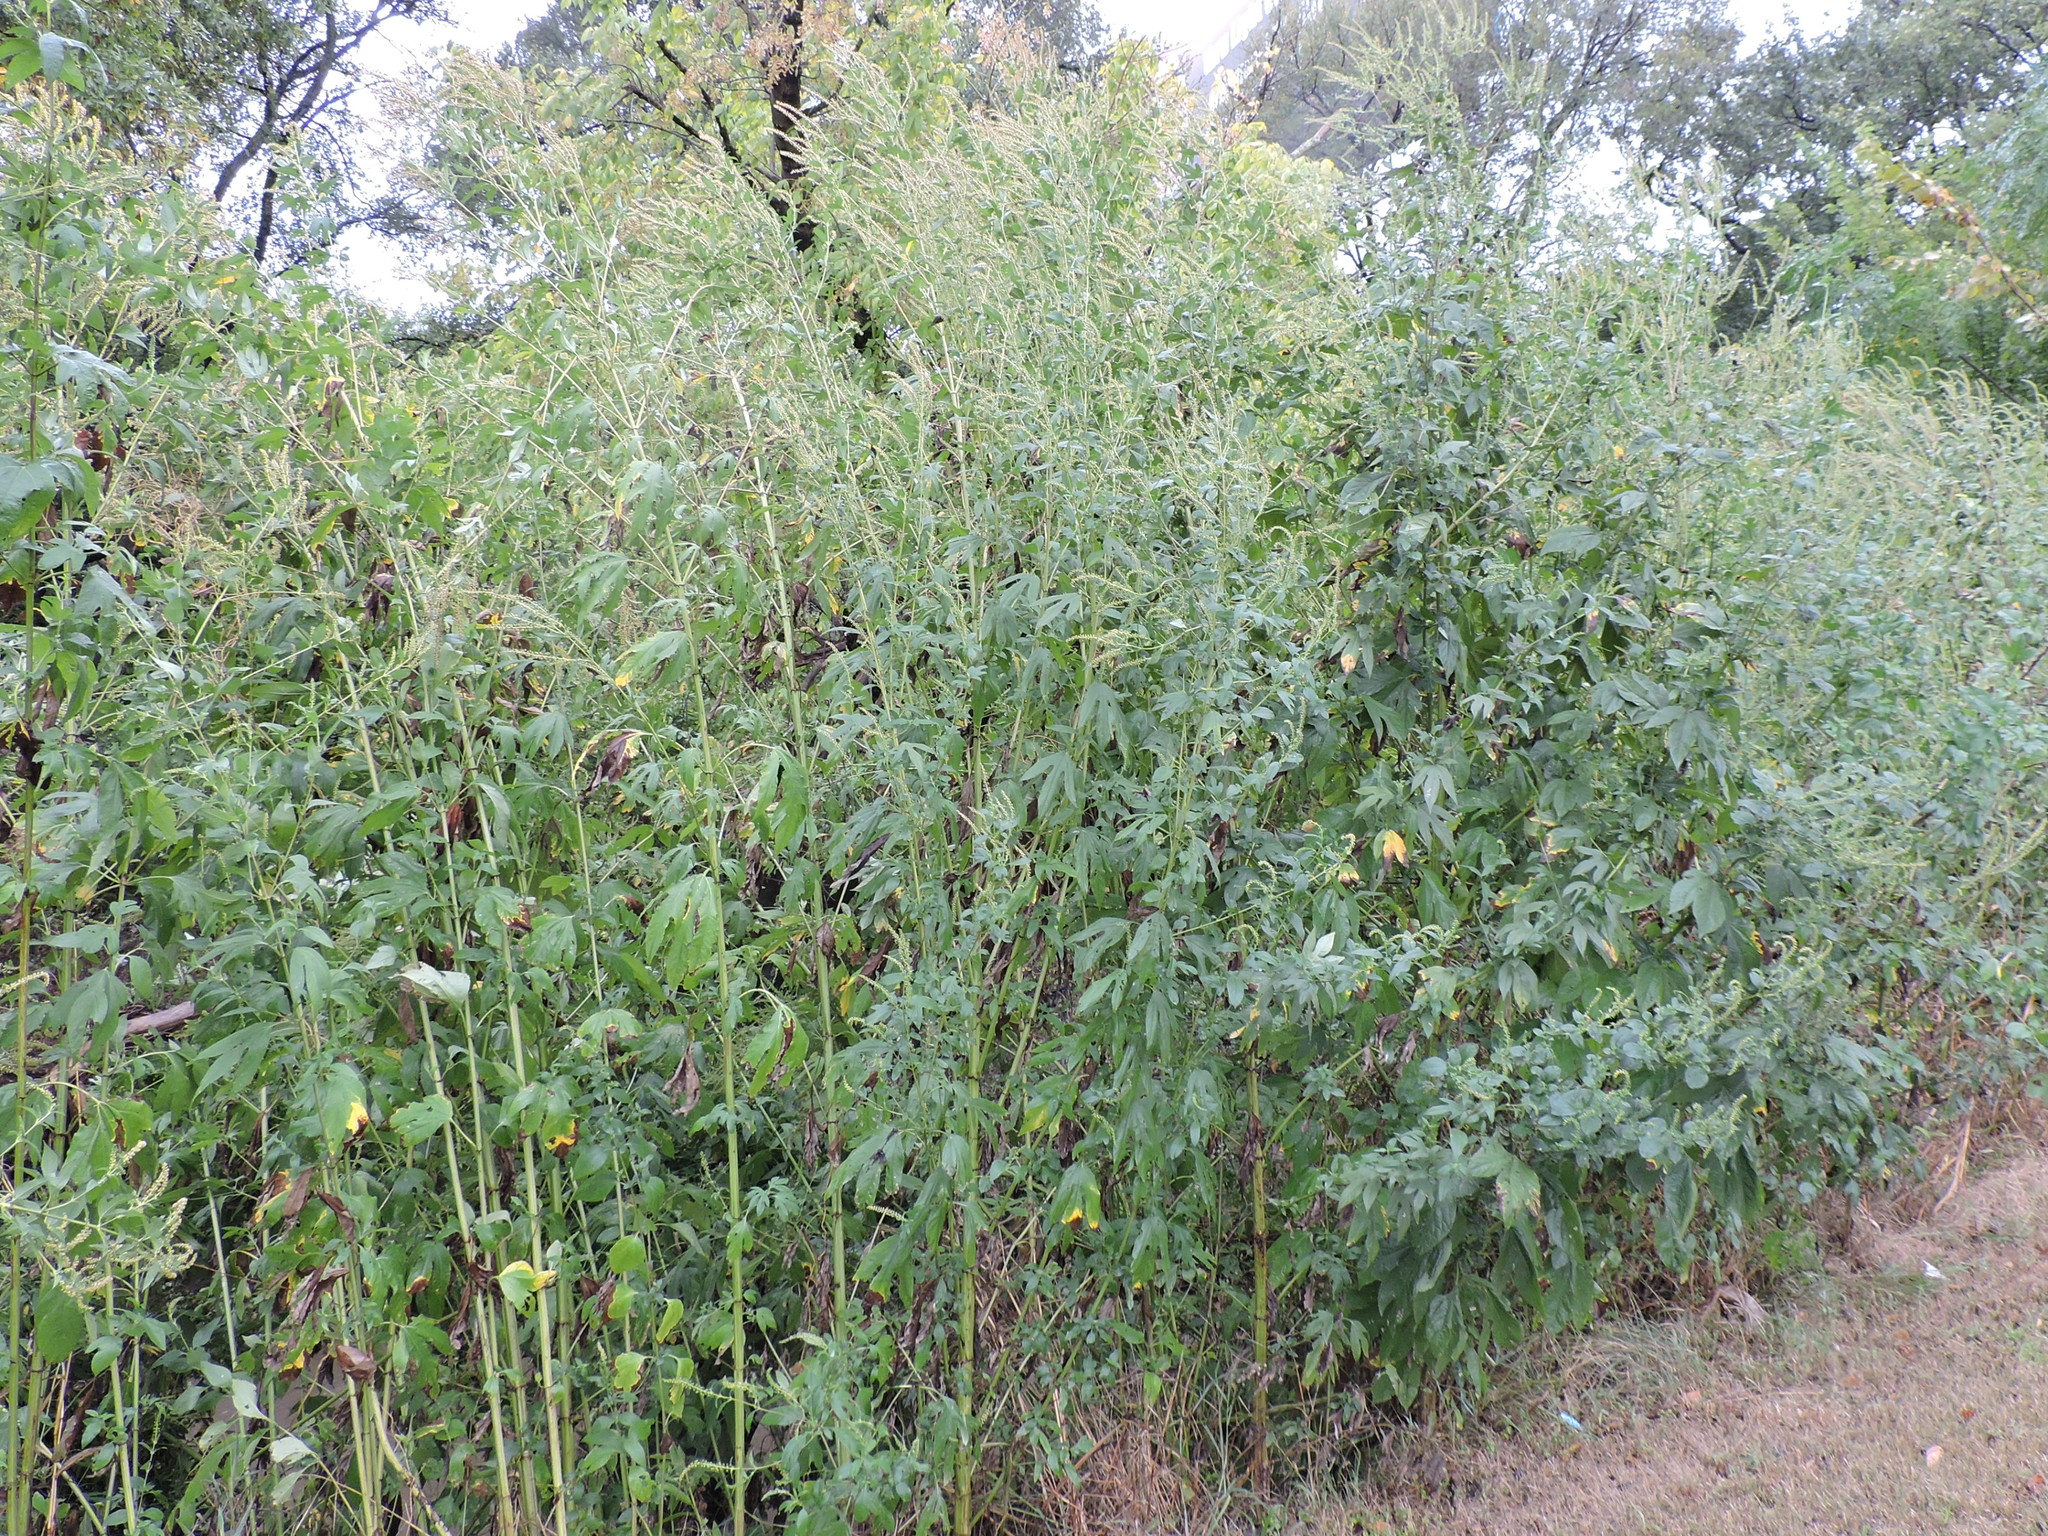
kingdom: Plantae
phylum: Tracheophyta
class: Magnoliopsida
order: Asterales
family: Asteraceae
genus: Ambrosia
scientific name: Ambrosia trifida
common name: Giant ragweed
